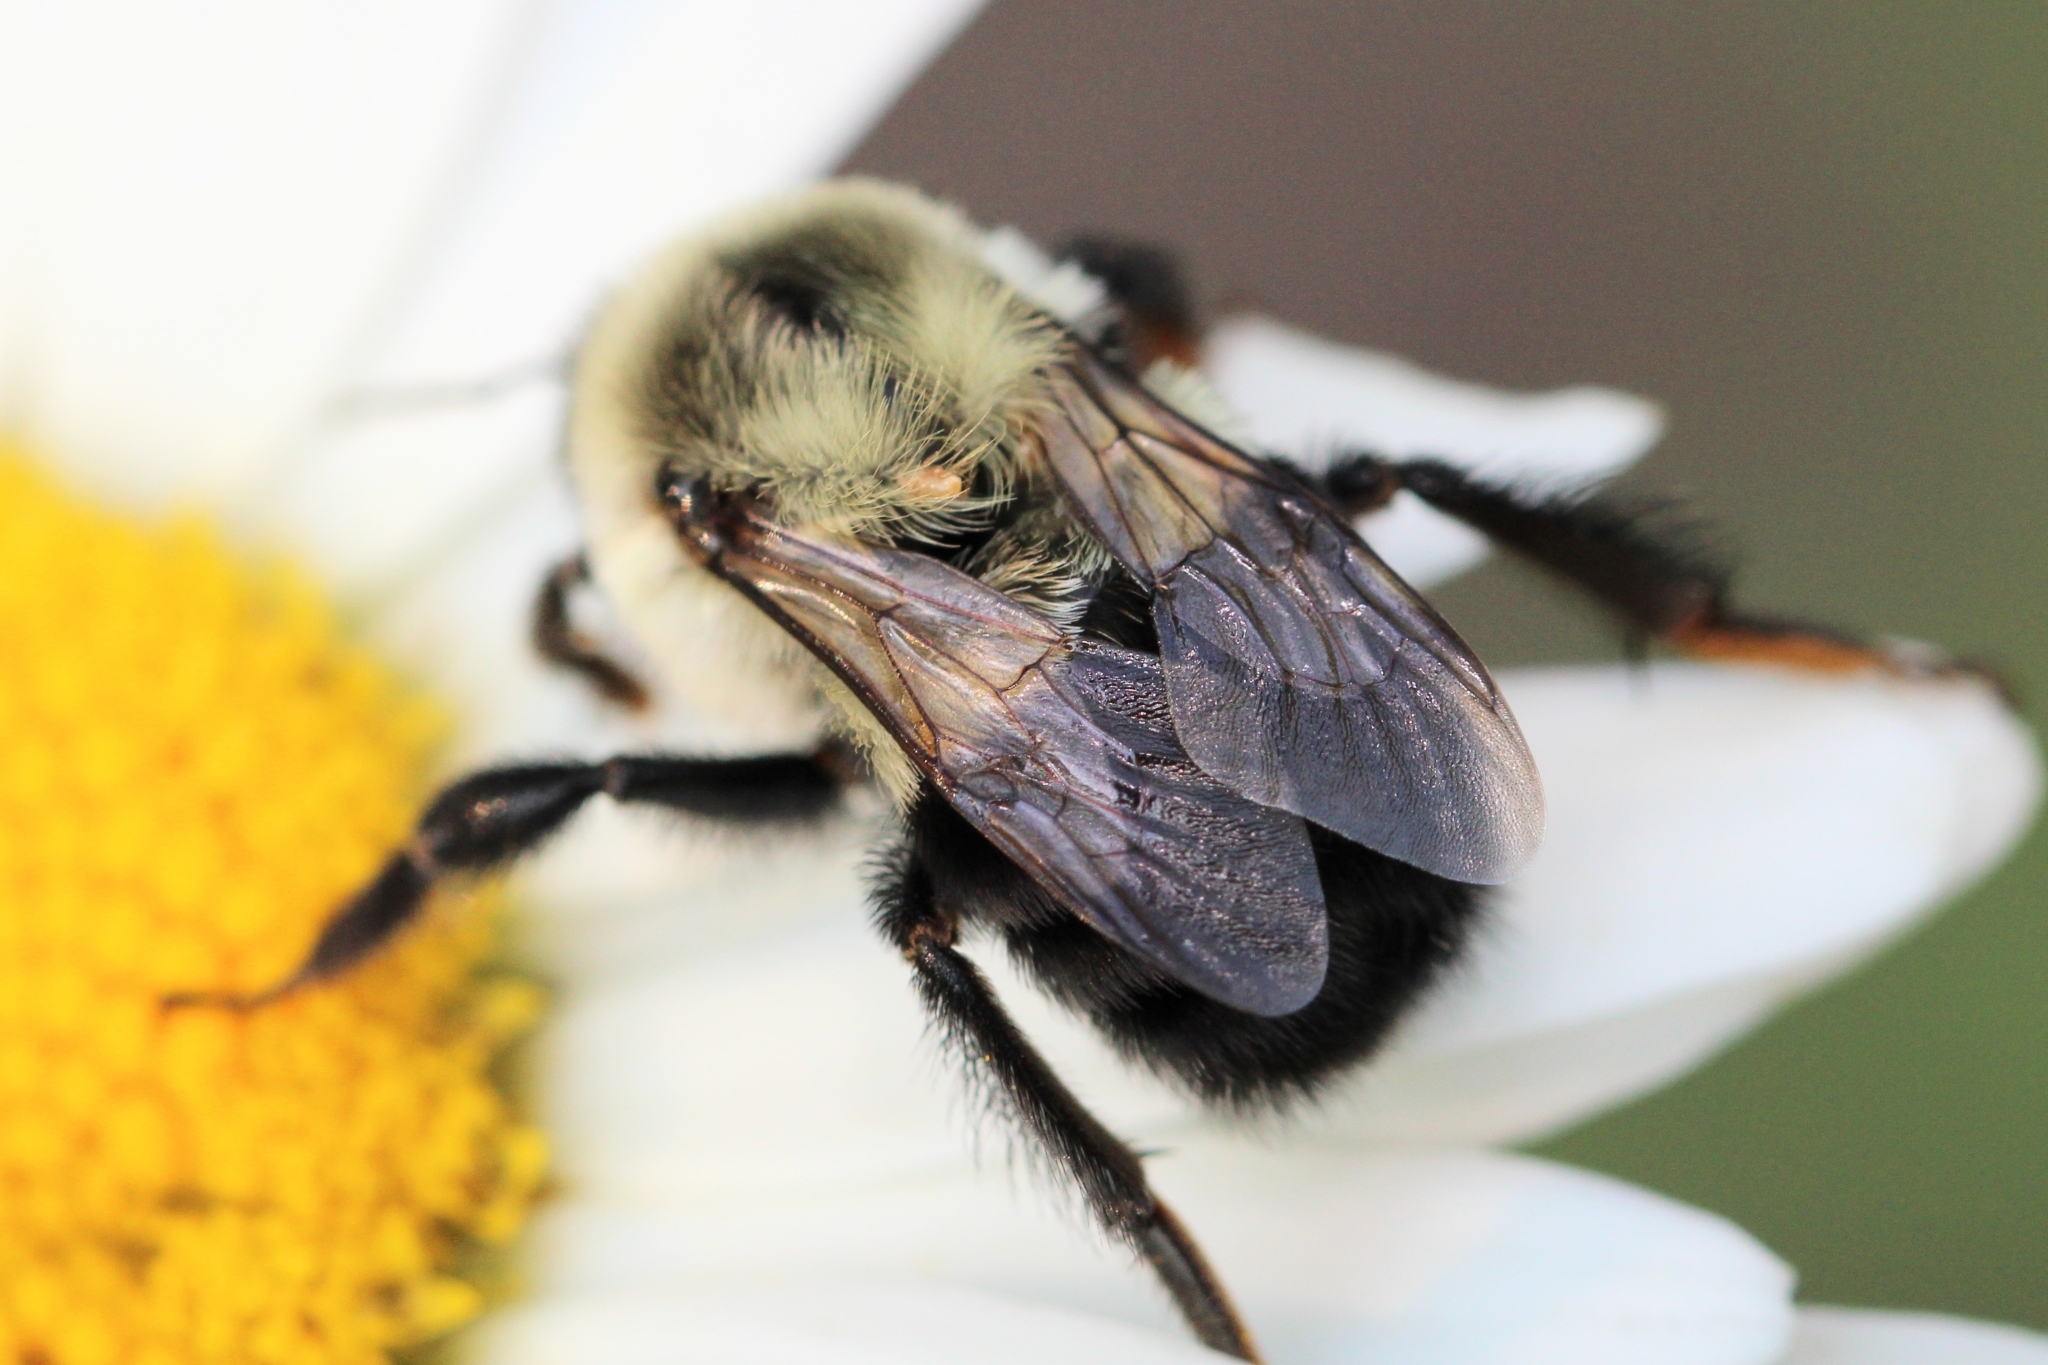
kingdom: Animalia
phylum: Arthropoda
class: Insecta
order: Hymenoptera
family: Apidae
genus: Bombus
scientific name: Bombus impatiens
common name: Common eastern bumble bee
